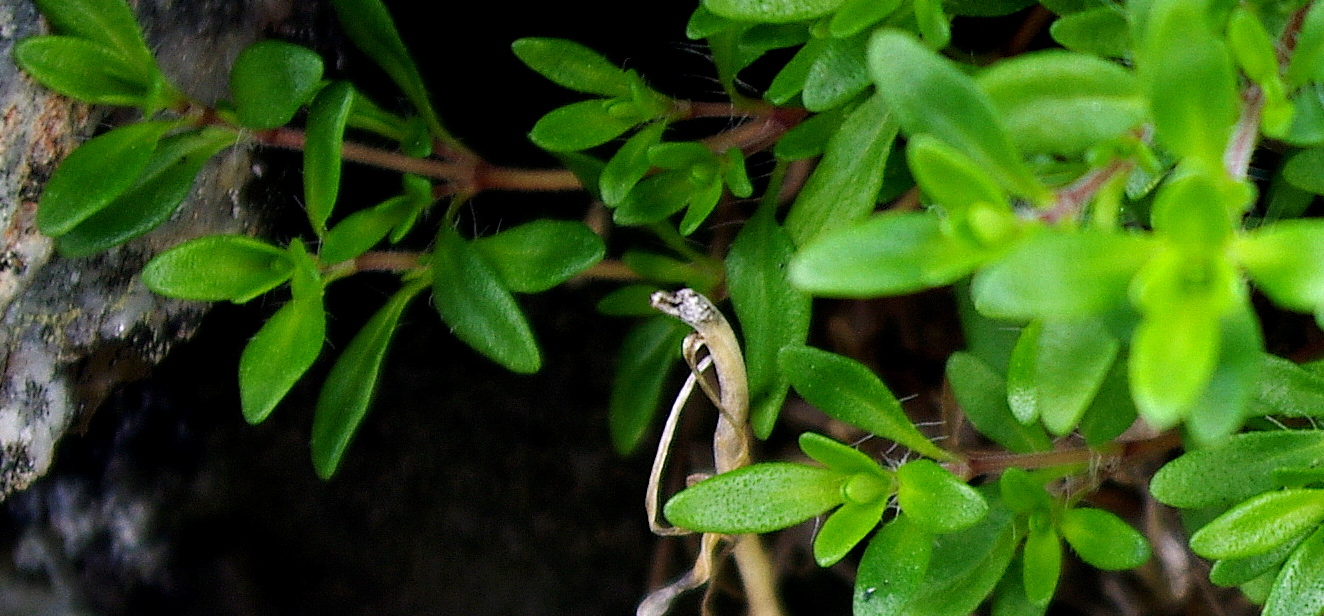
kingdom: Plantae
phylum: Tracheophyta
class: Magnoliopsida
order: Lamiales
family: Lamiaceae
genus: Thymus
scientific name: Thymus serpyllum
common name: Breckland thyme
